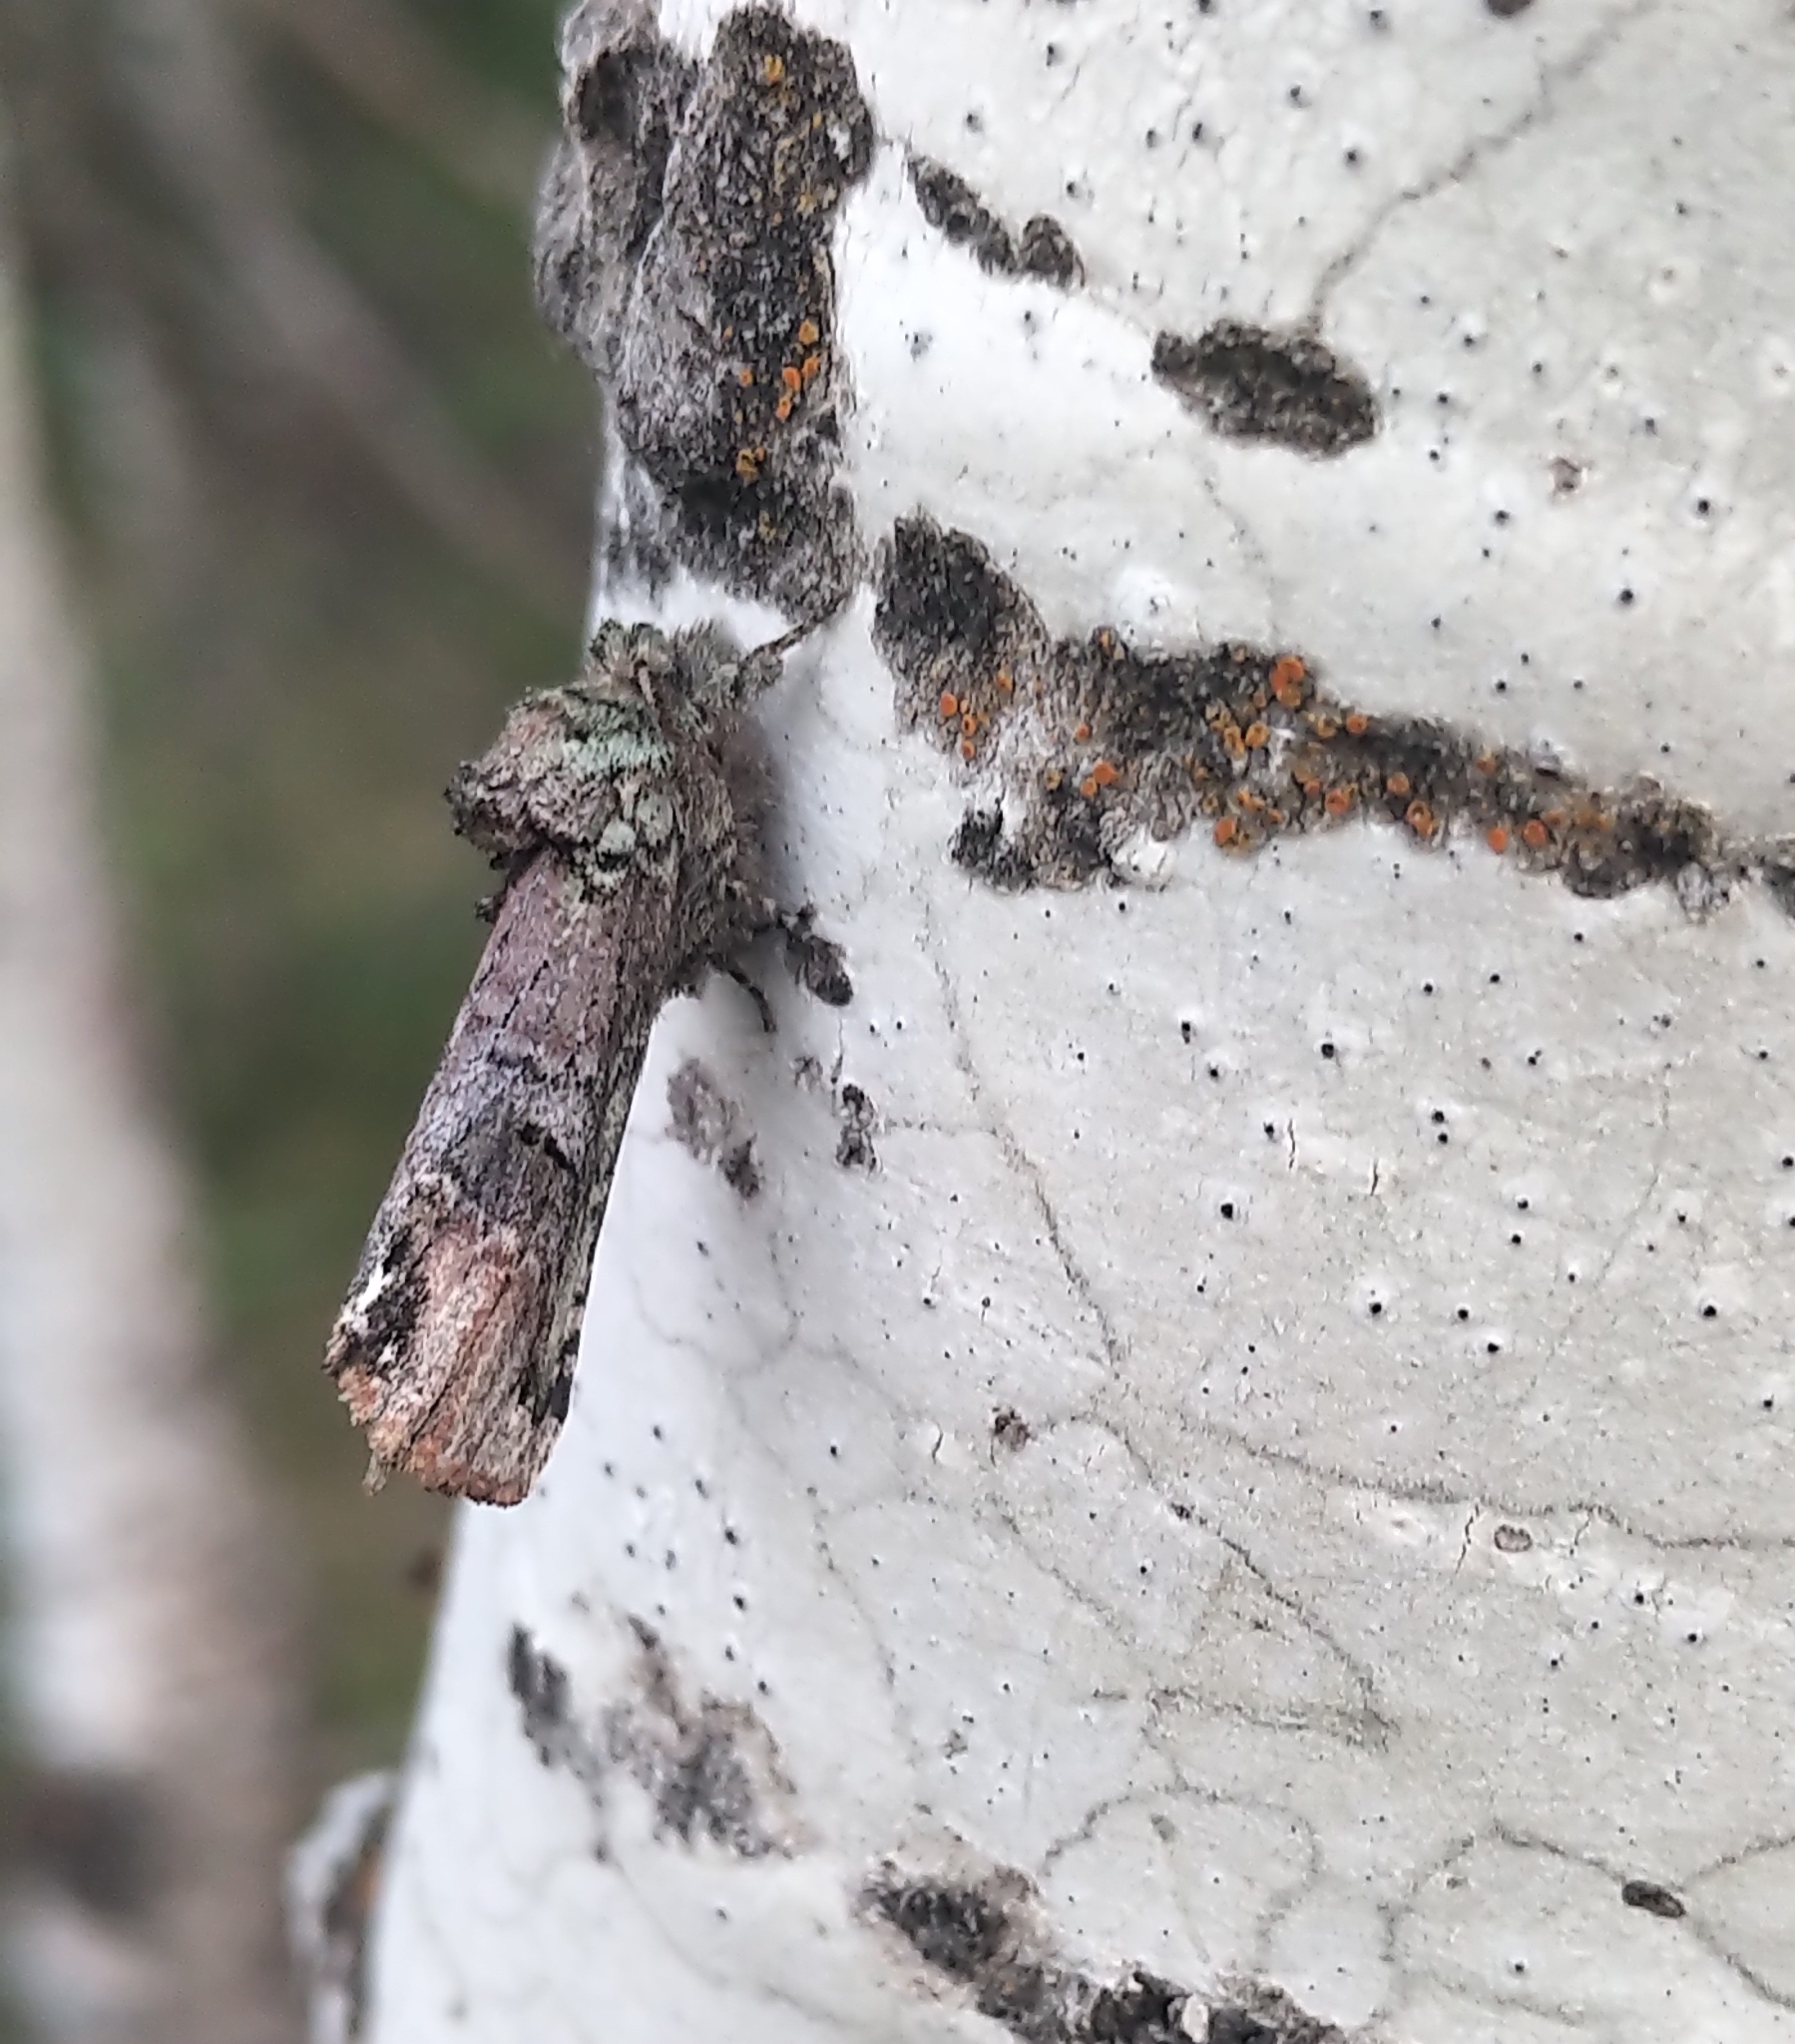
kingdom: Animalia
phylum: Arthropoda
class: Insecta
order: Lepidoptera
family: Notodontidae
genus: Schizura
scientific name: Schizura
